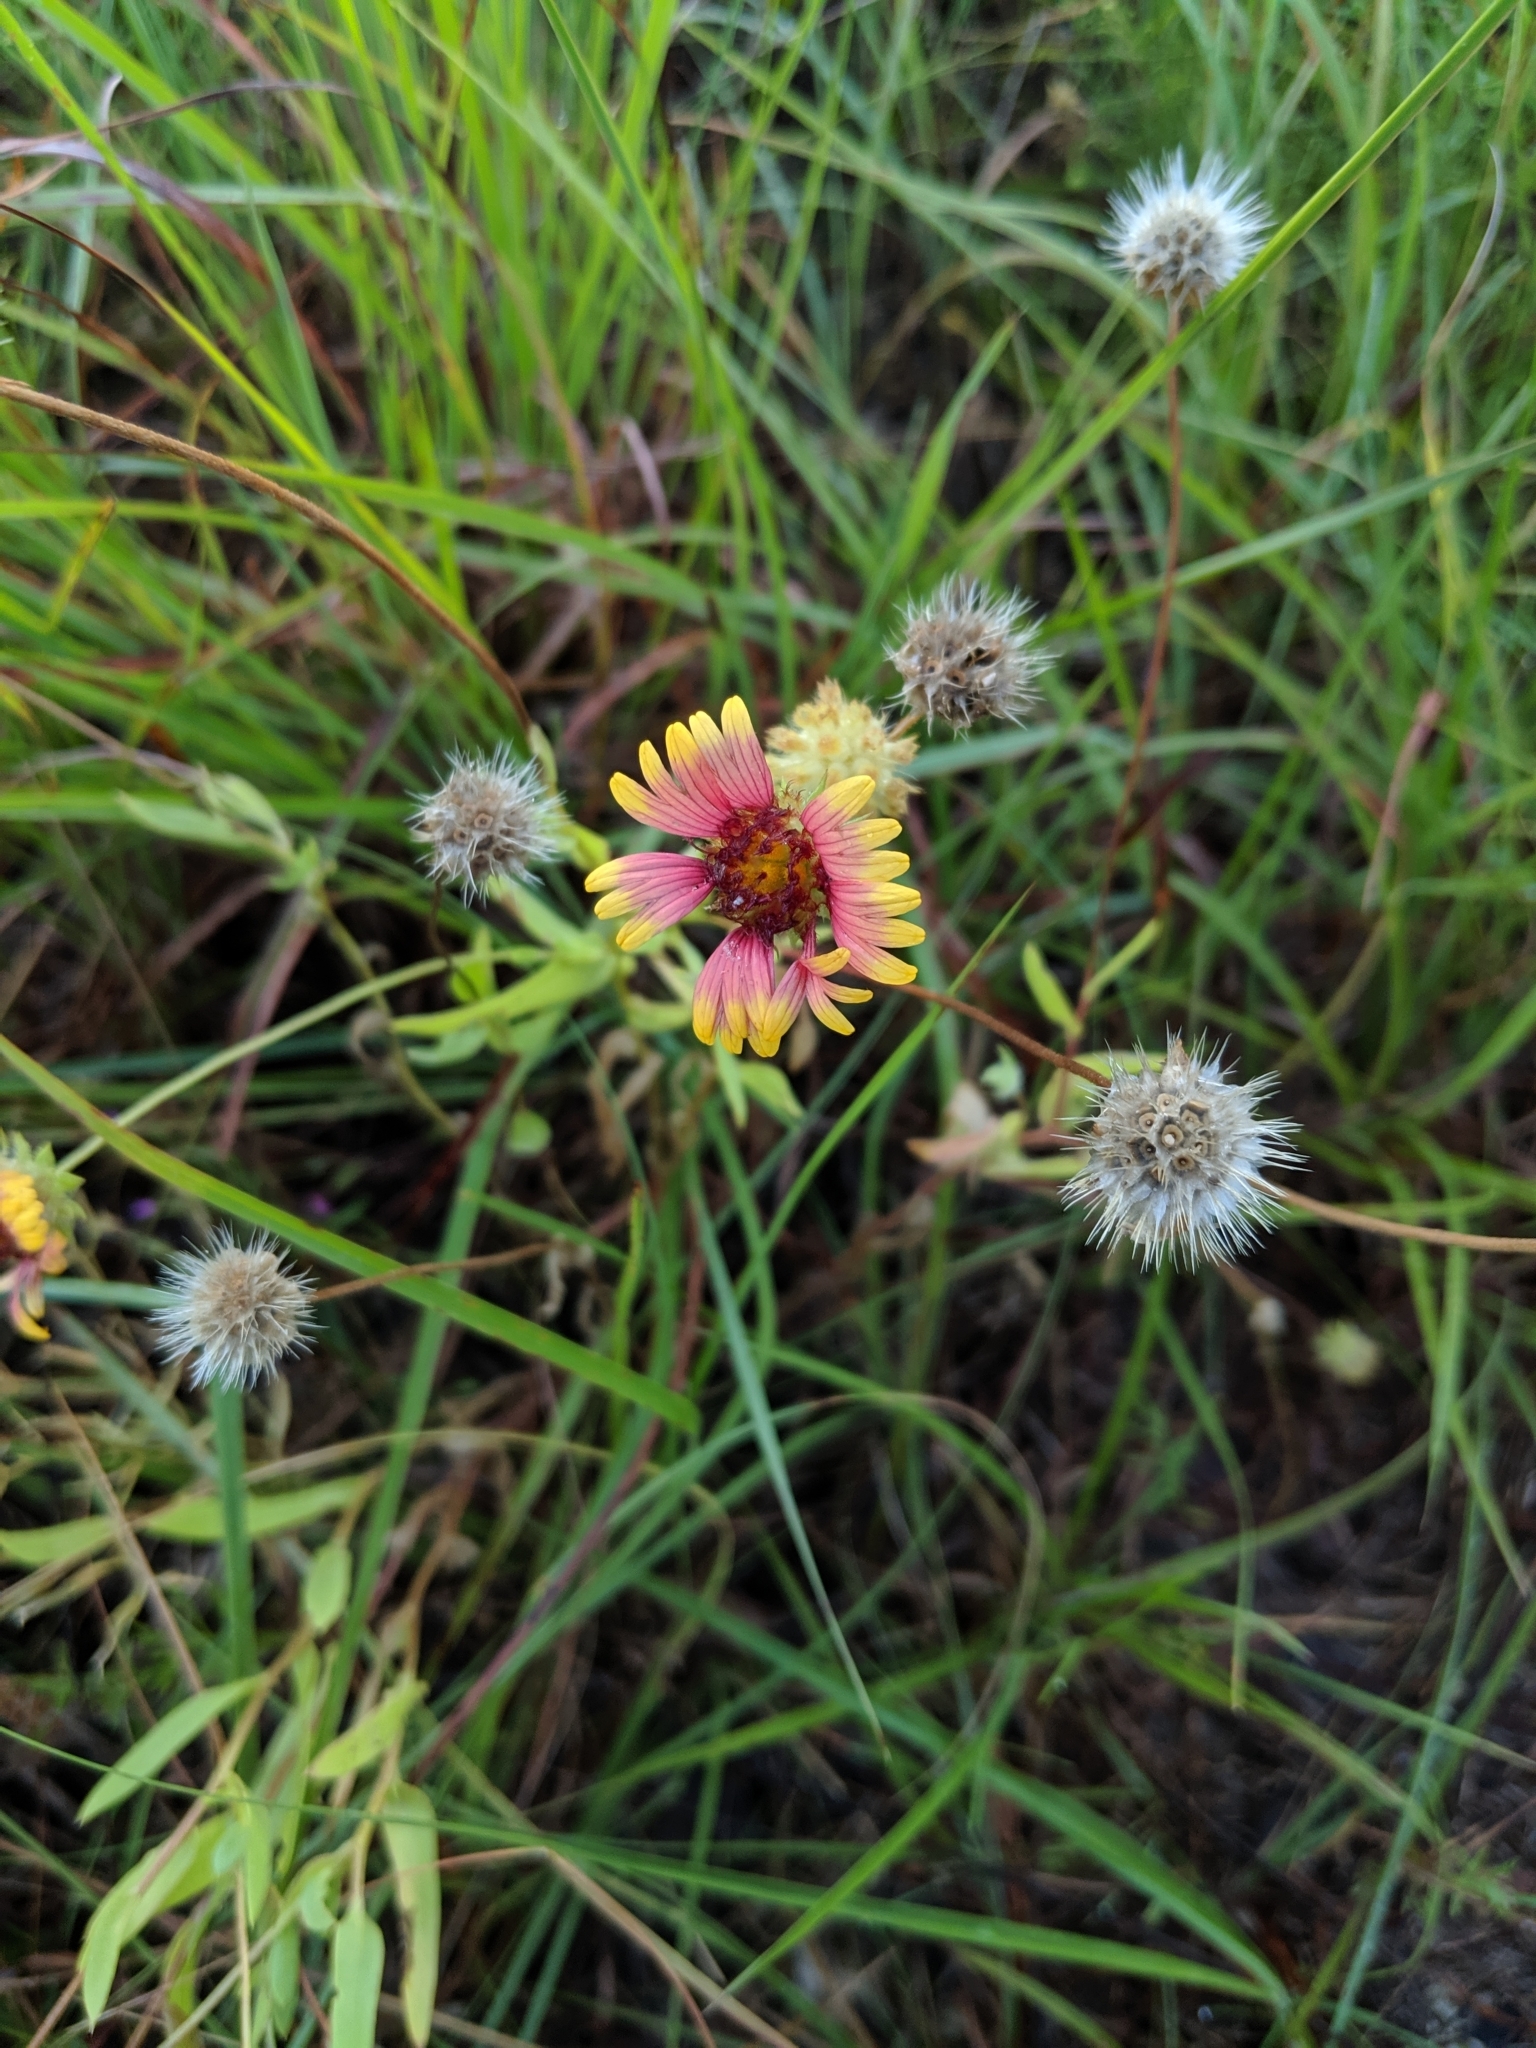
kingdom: Plantae
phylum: Tracheophyta
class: Magnoliopsida
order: Asterales
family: Asteraceae
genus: Gaillardia
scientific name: Gaillardia pulchella
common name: Firewheel
